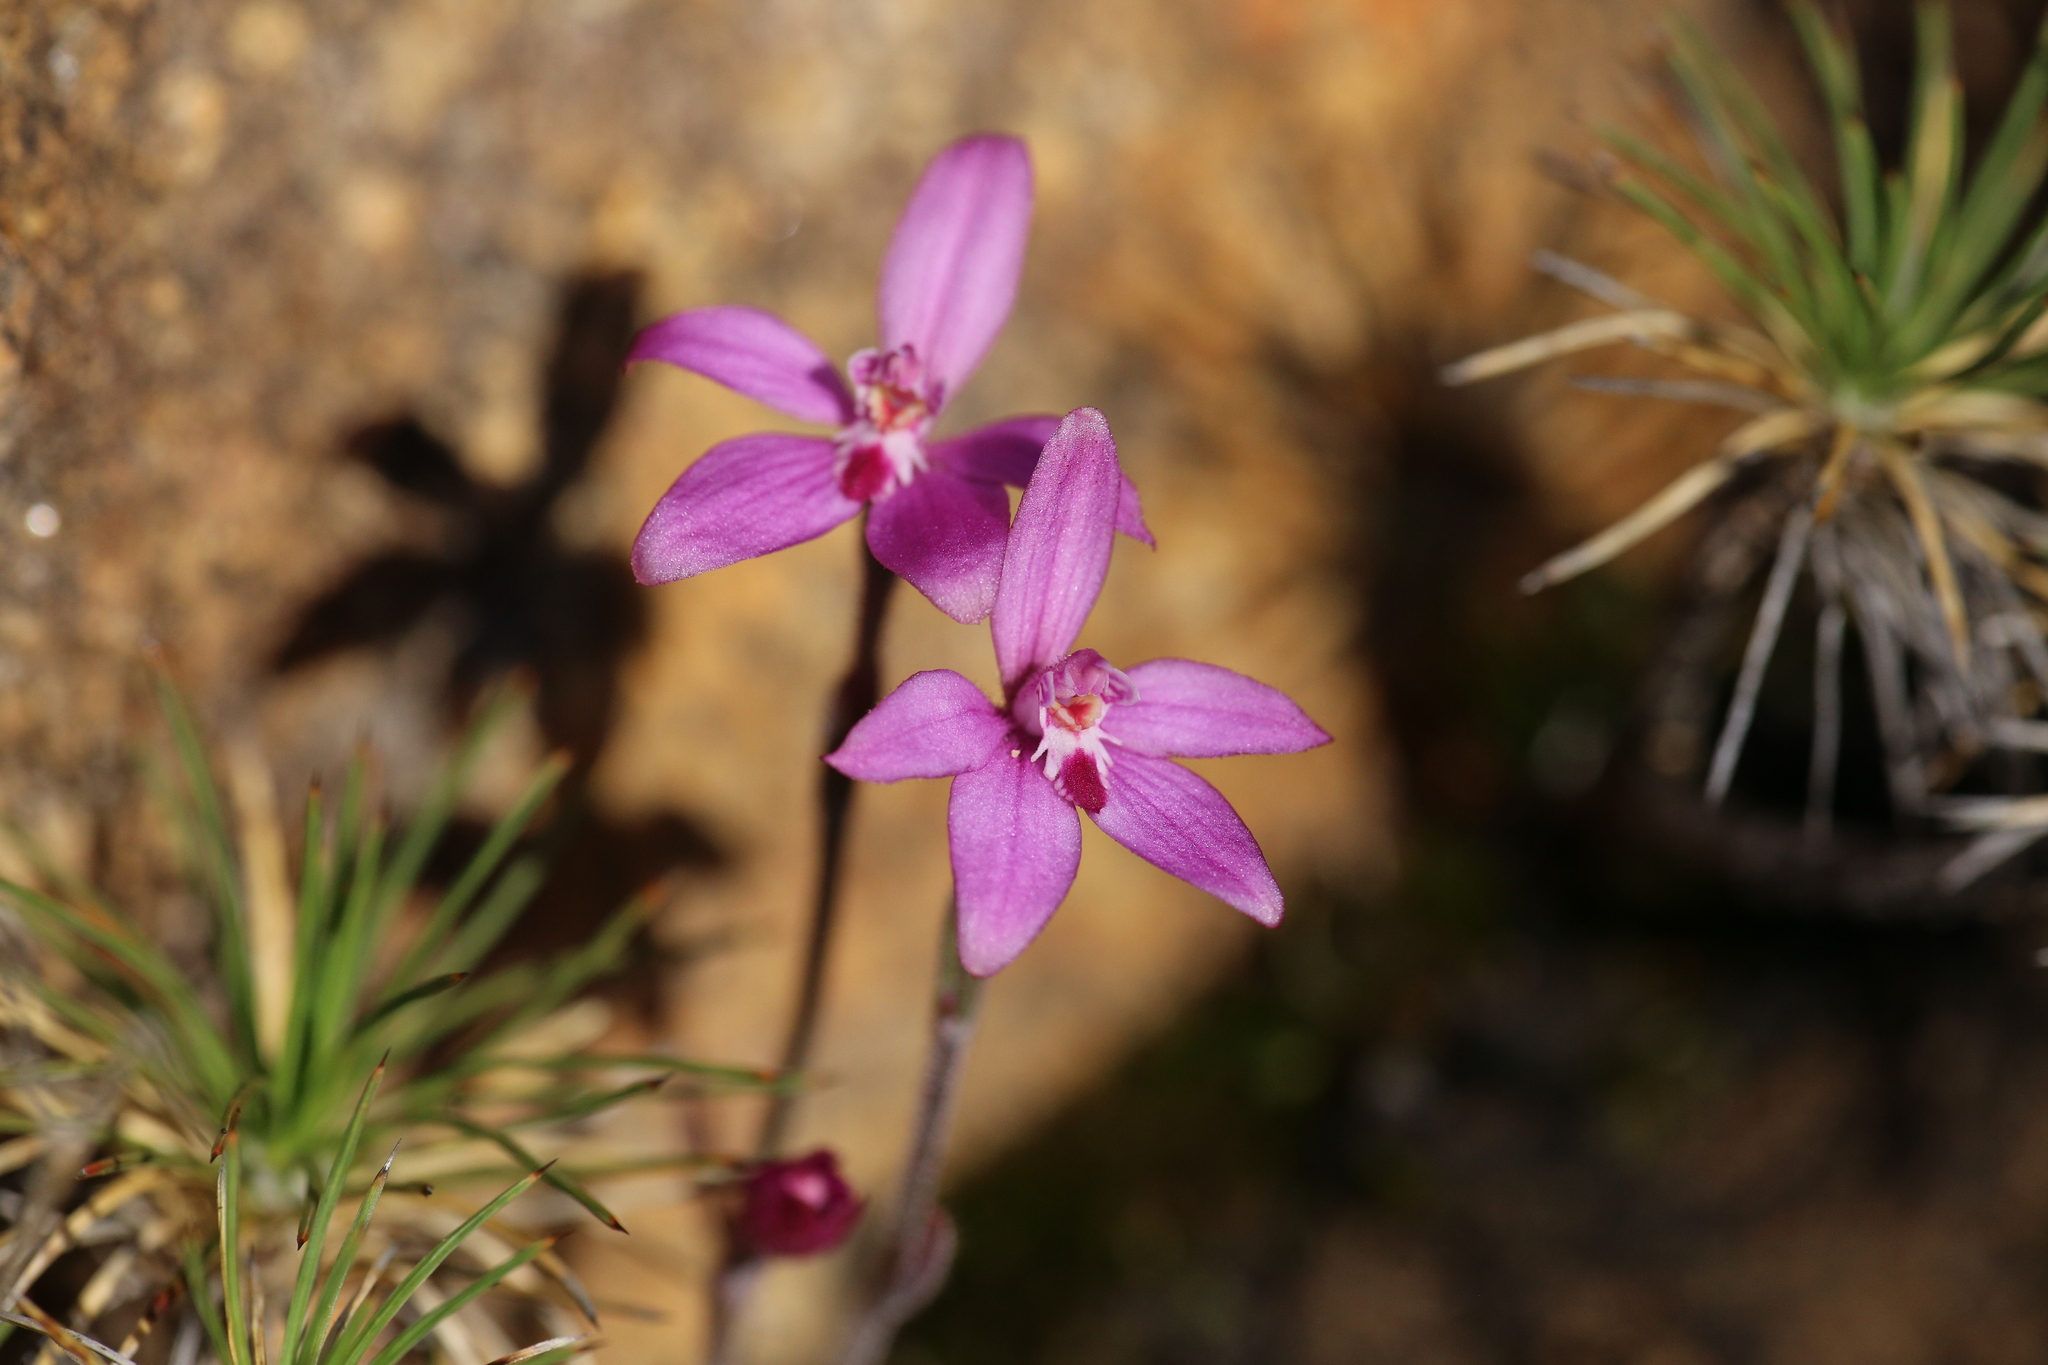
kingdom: Plantae
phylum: Tracheophyta
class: Liliopsida
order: Asparagales
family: Orchidaceae
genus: Caladenia
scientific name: Caladenia reptans
